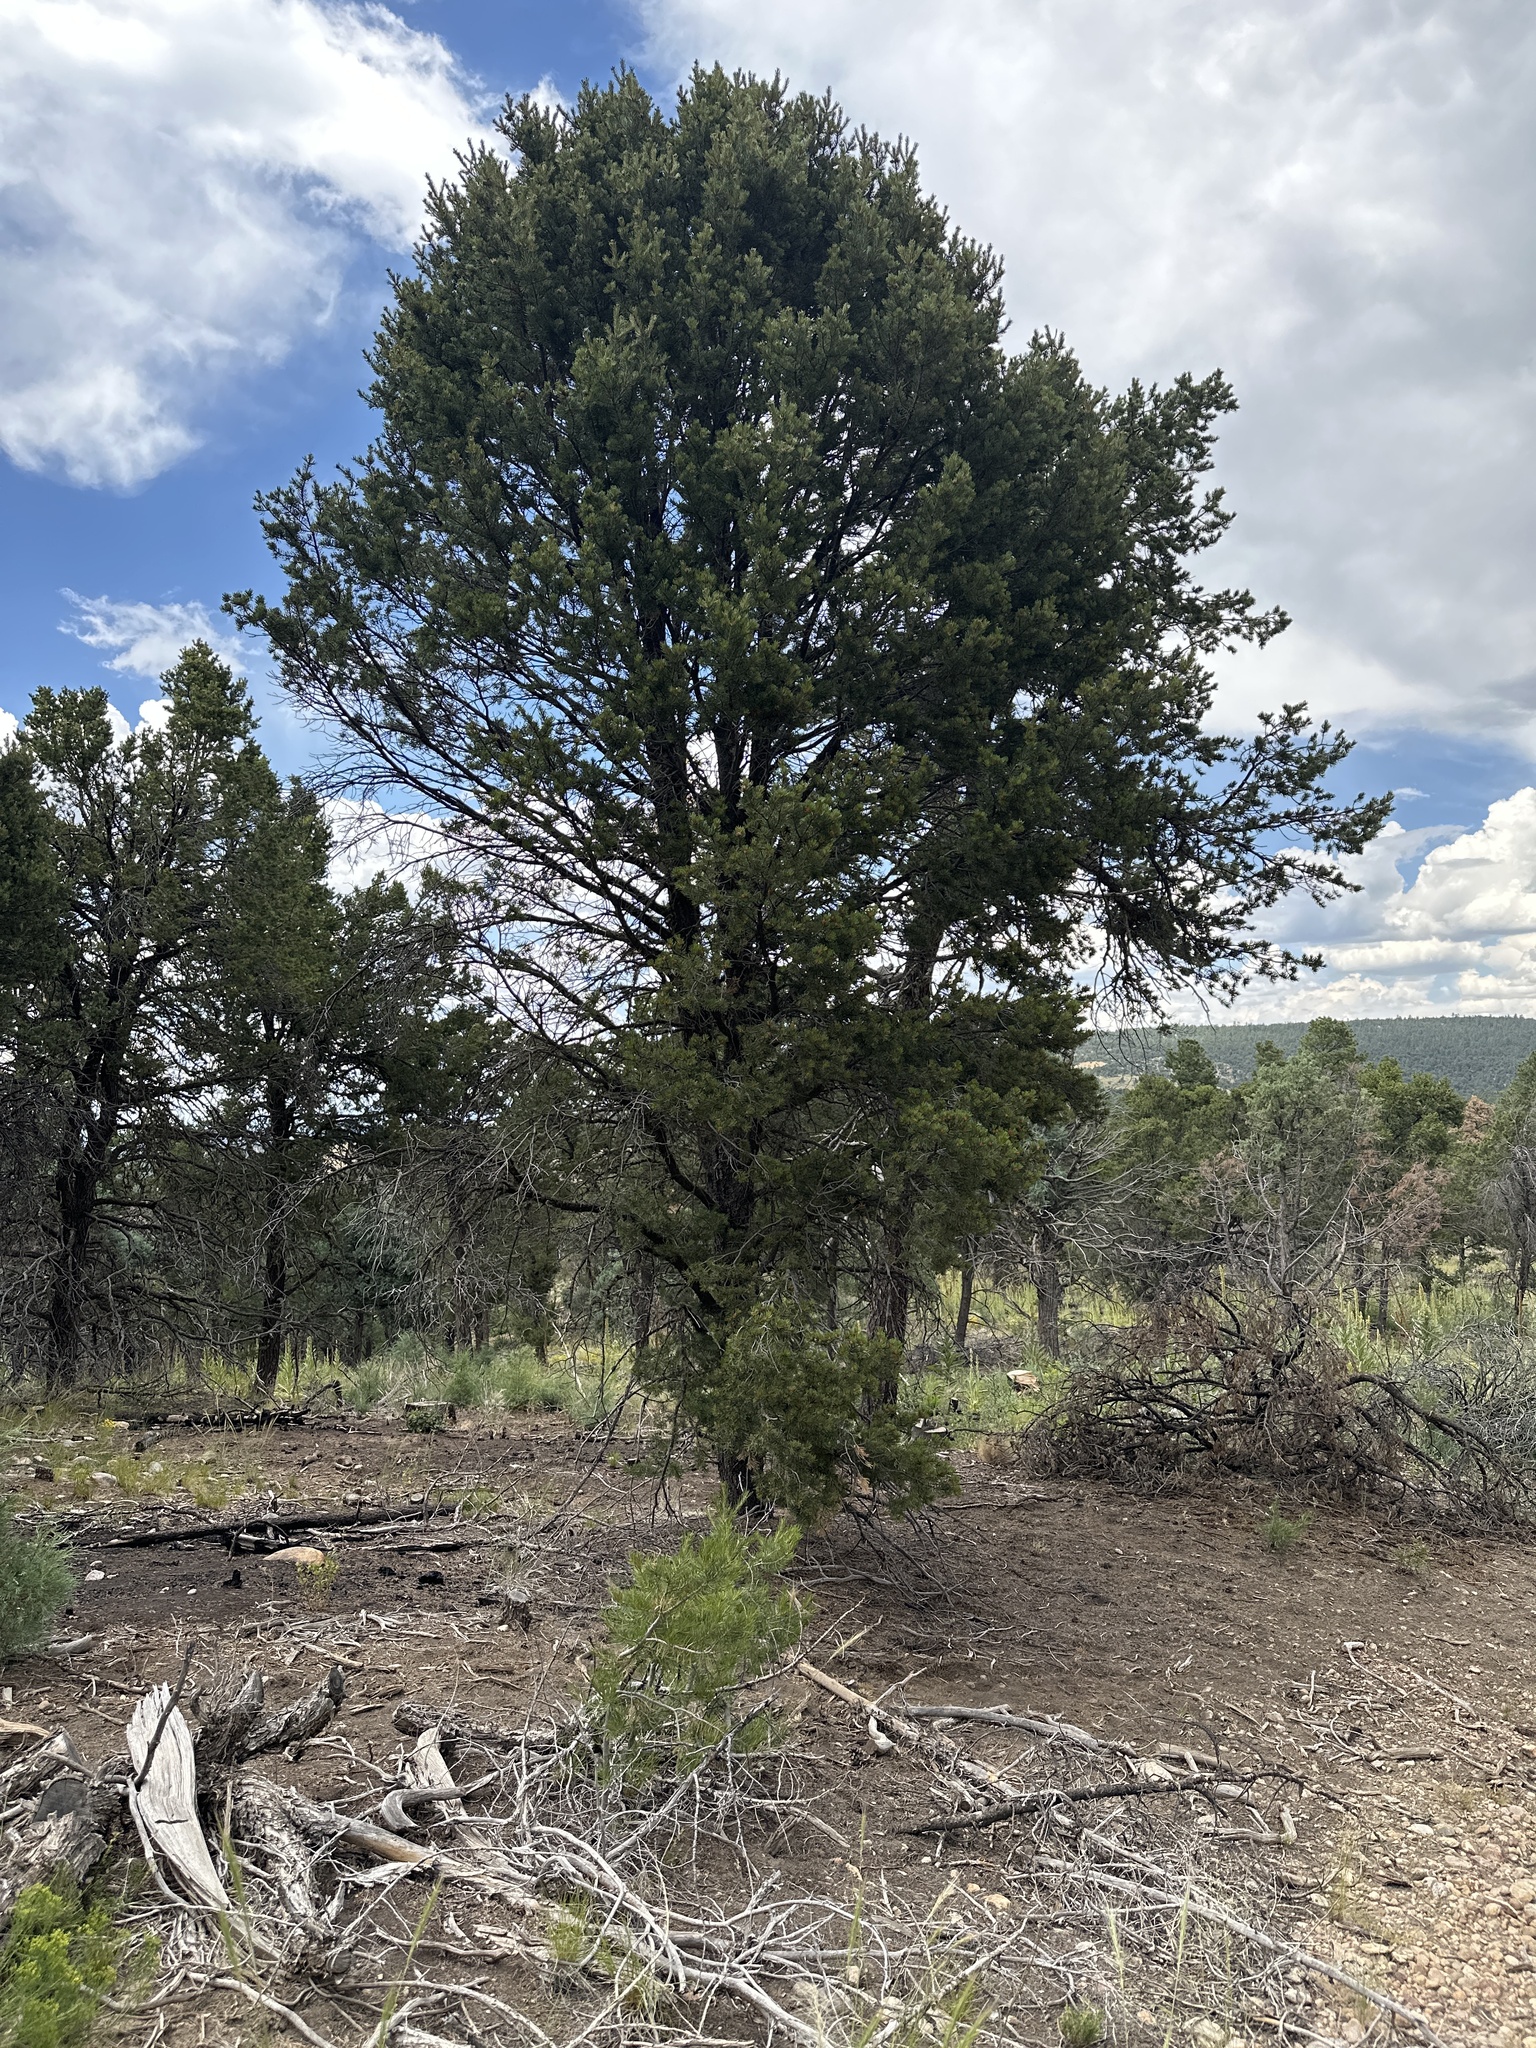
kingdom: Plantae
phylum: Tracheophyta
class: Pinopsida
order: Pinales
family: Pinaceae
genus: Pinus
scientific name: Pinus edulis
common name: Colorado pinyon
